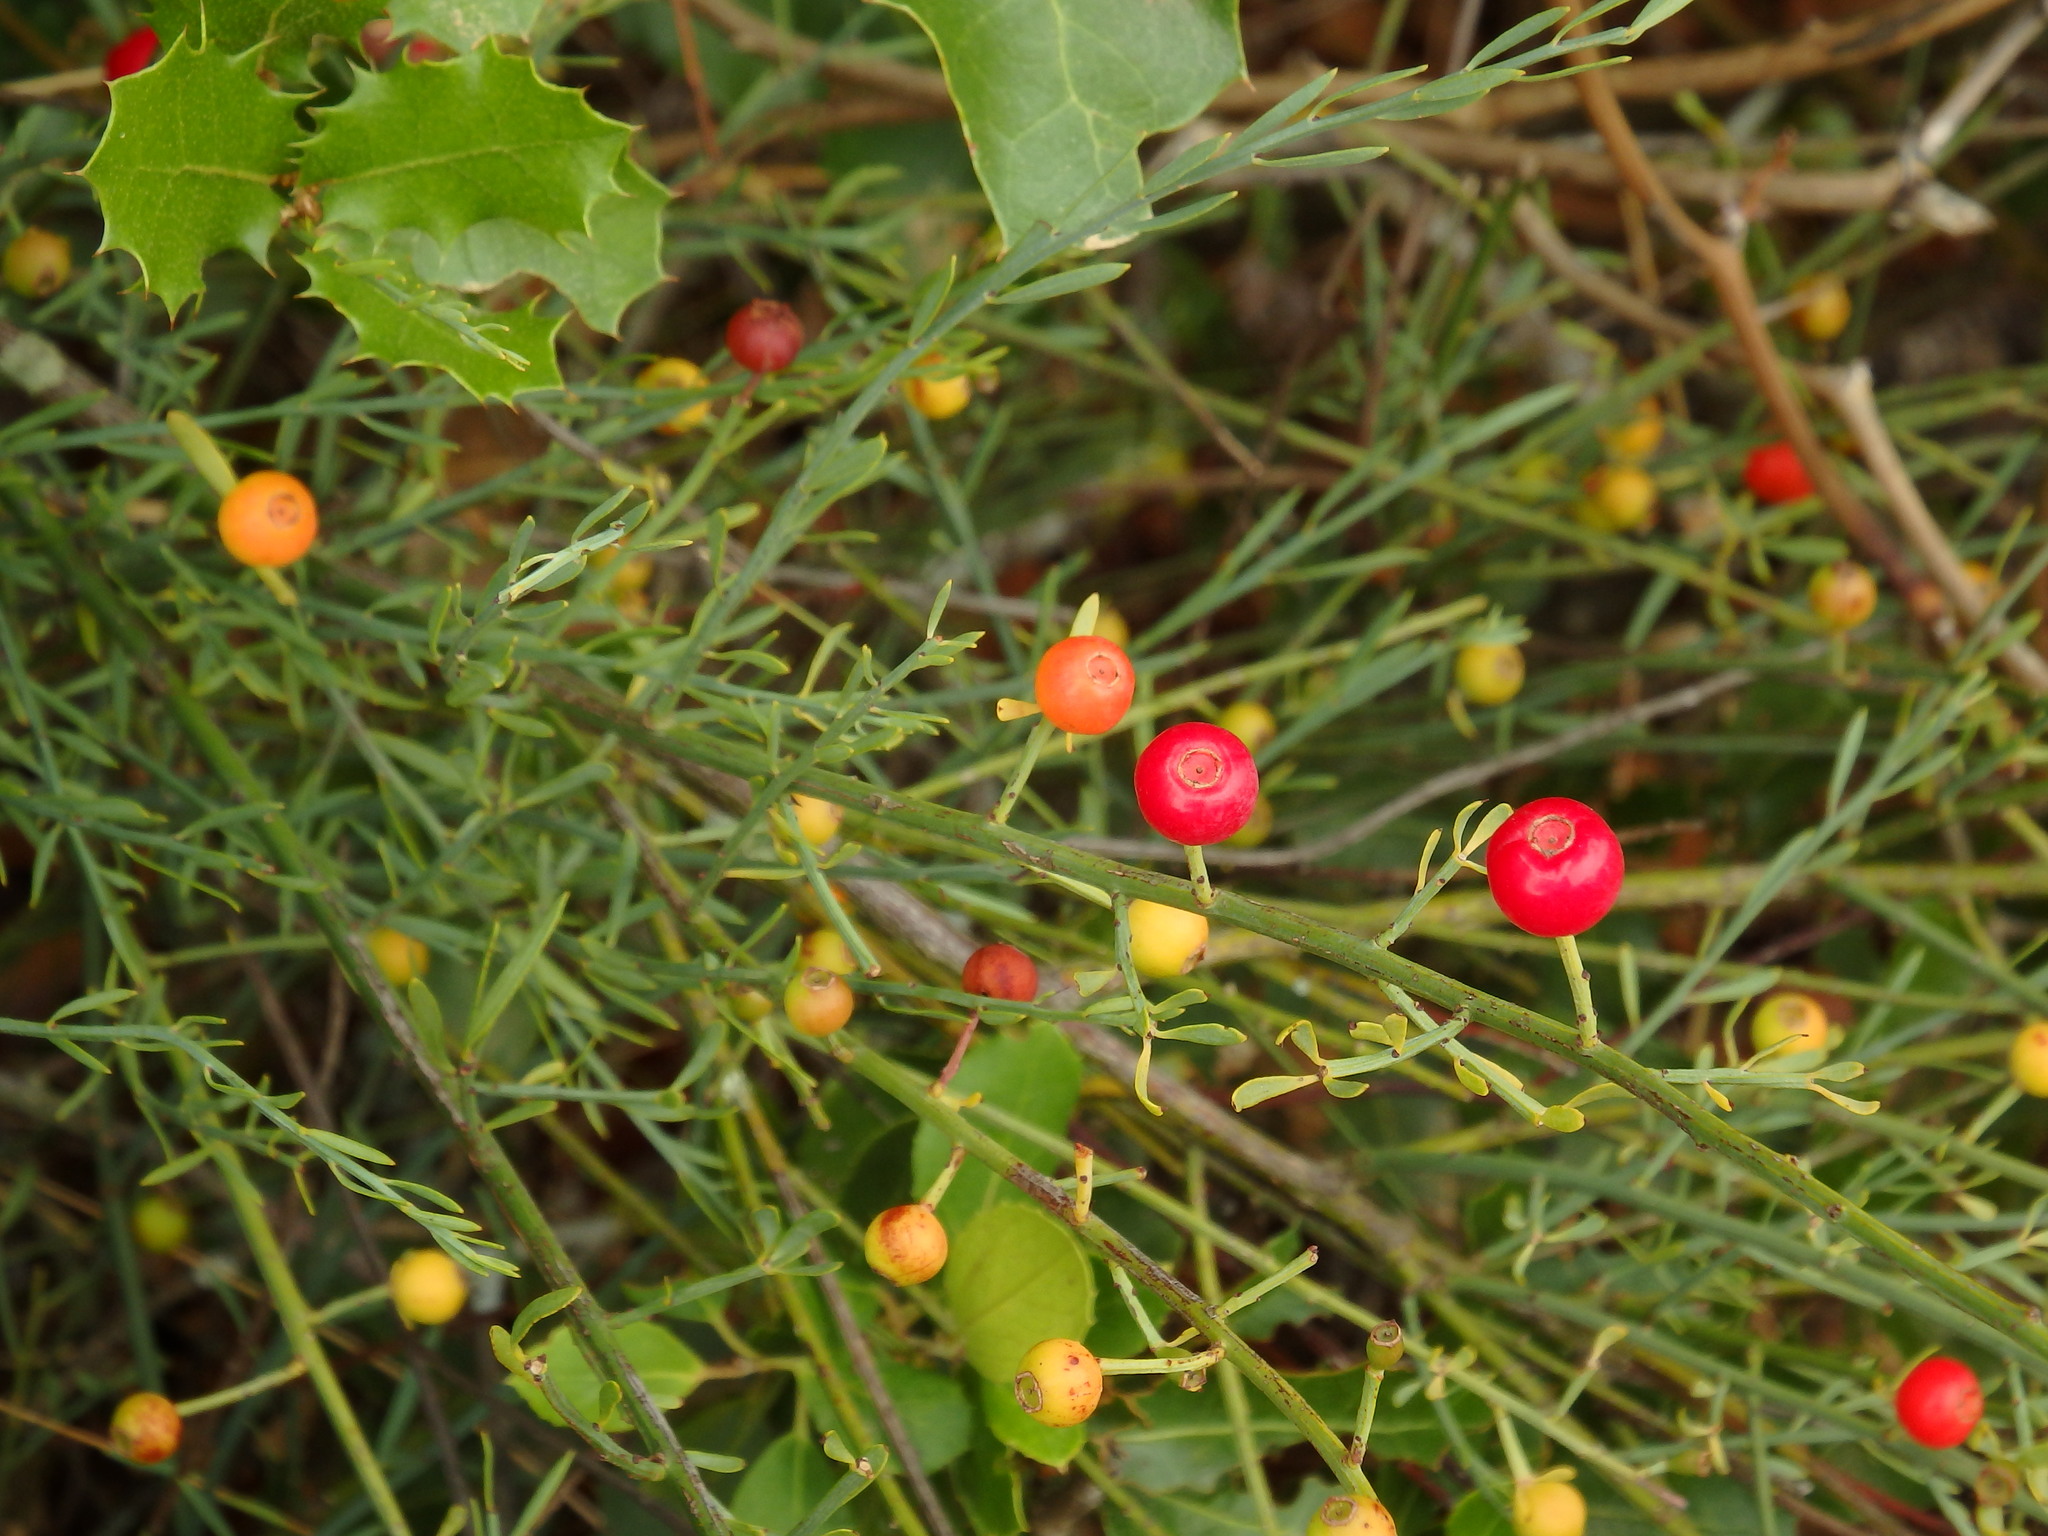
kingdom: Plantae
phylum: Tracheophyta
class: Magnoliopsida
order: Santalales
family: Santalaceae
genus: Osyris
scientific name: Osyris alba
